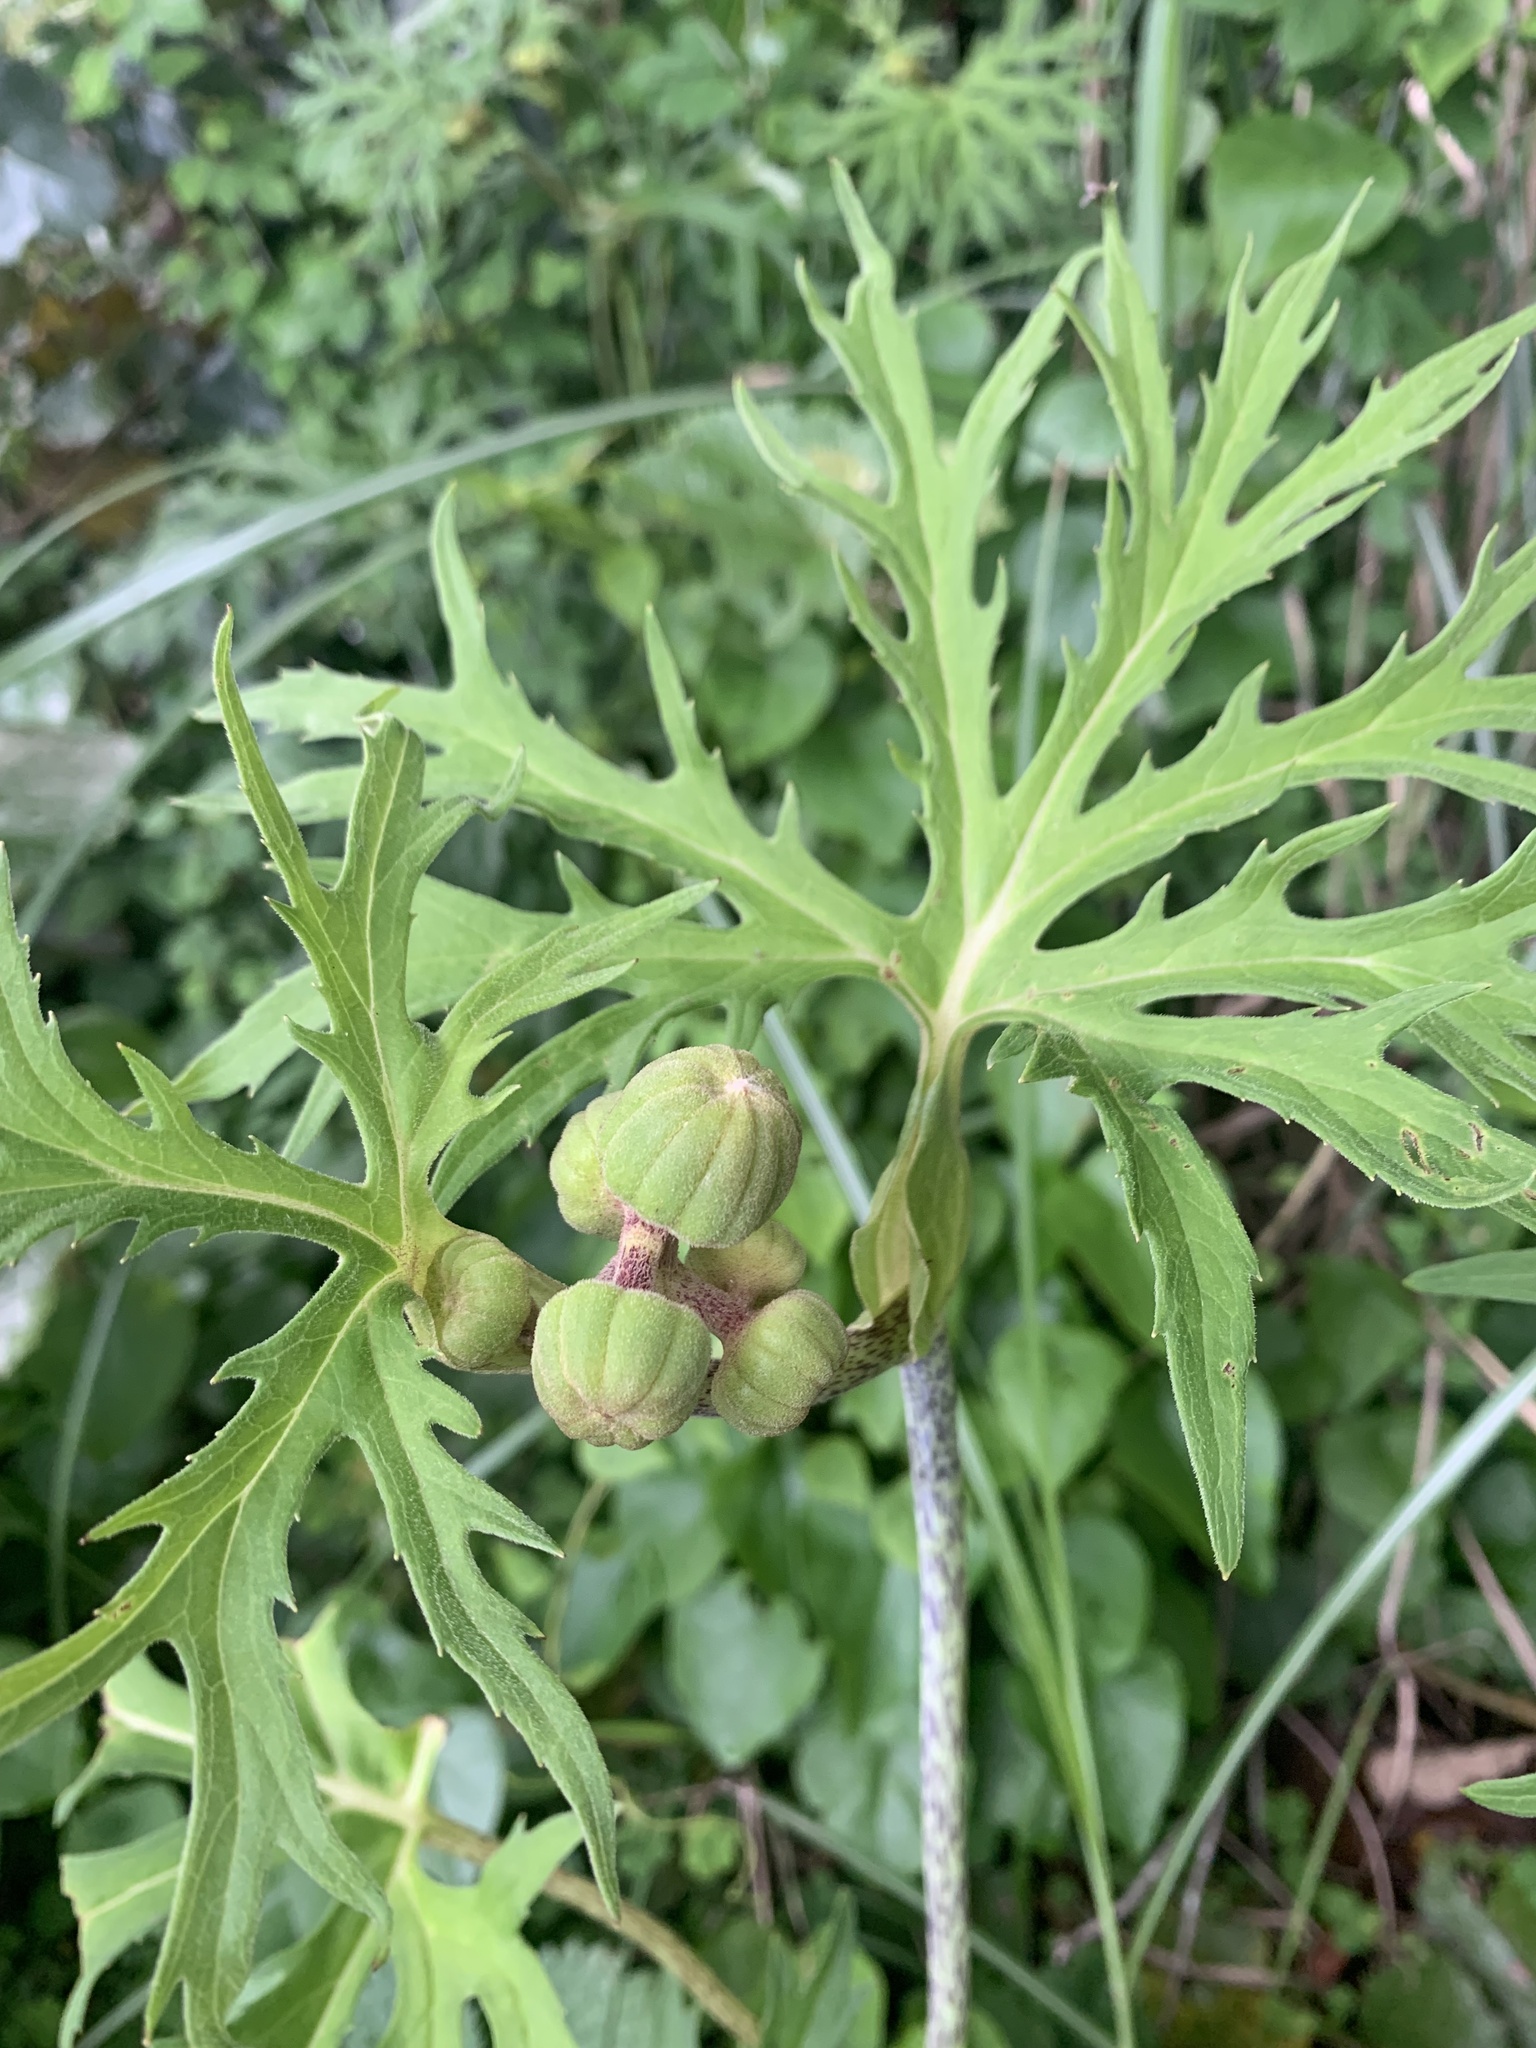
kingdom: Plantae
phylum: Tracheophyta
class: Magnoliopsida
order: Asterales
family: Asteraceae
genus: Ligularia
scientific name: Ligularia japonica
